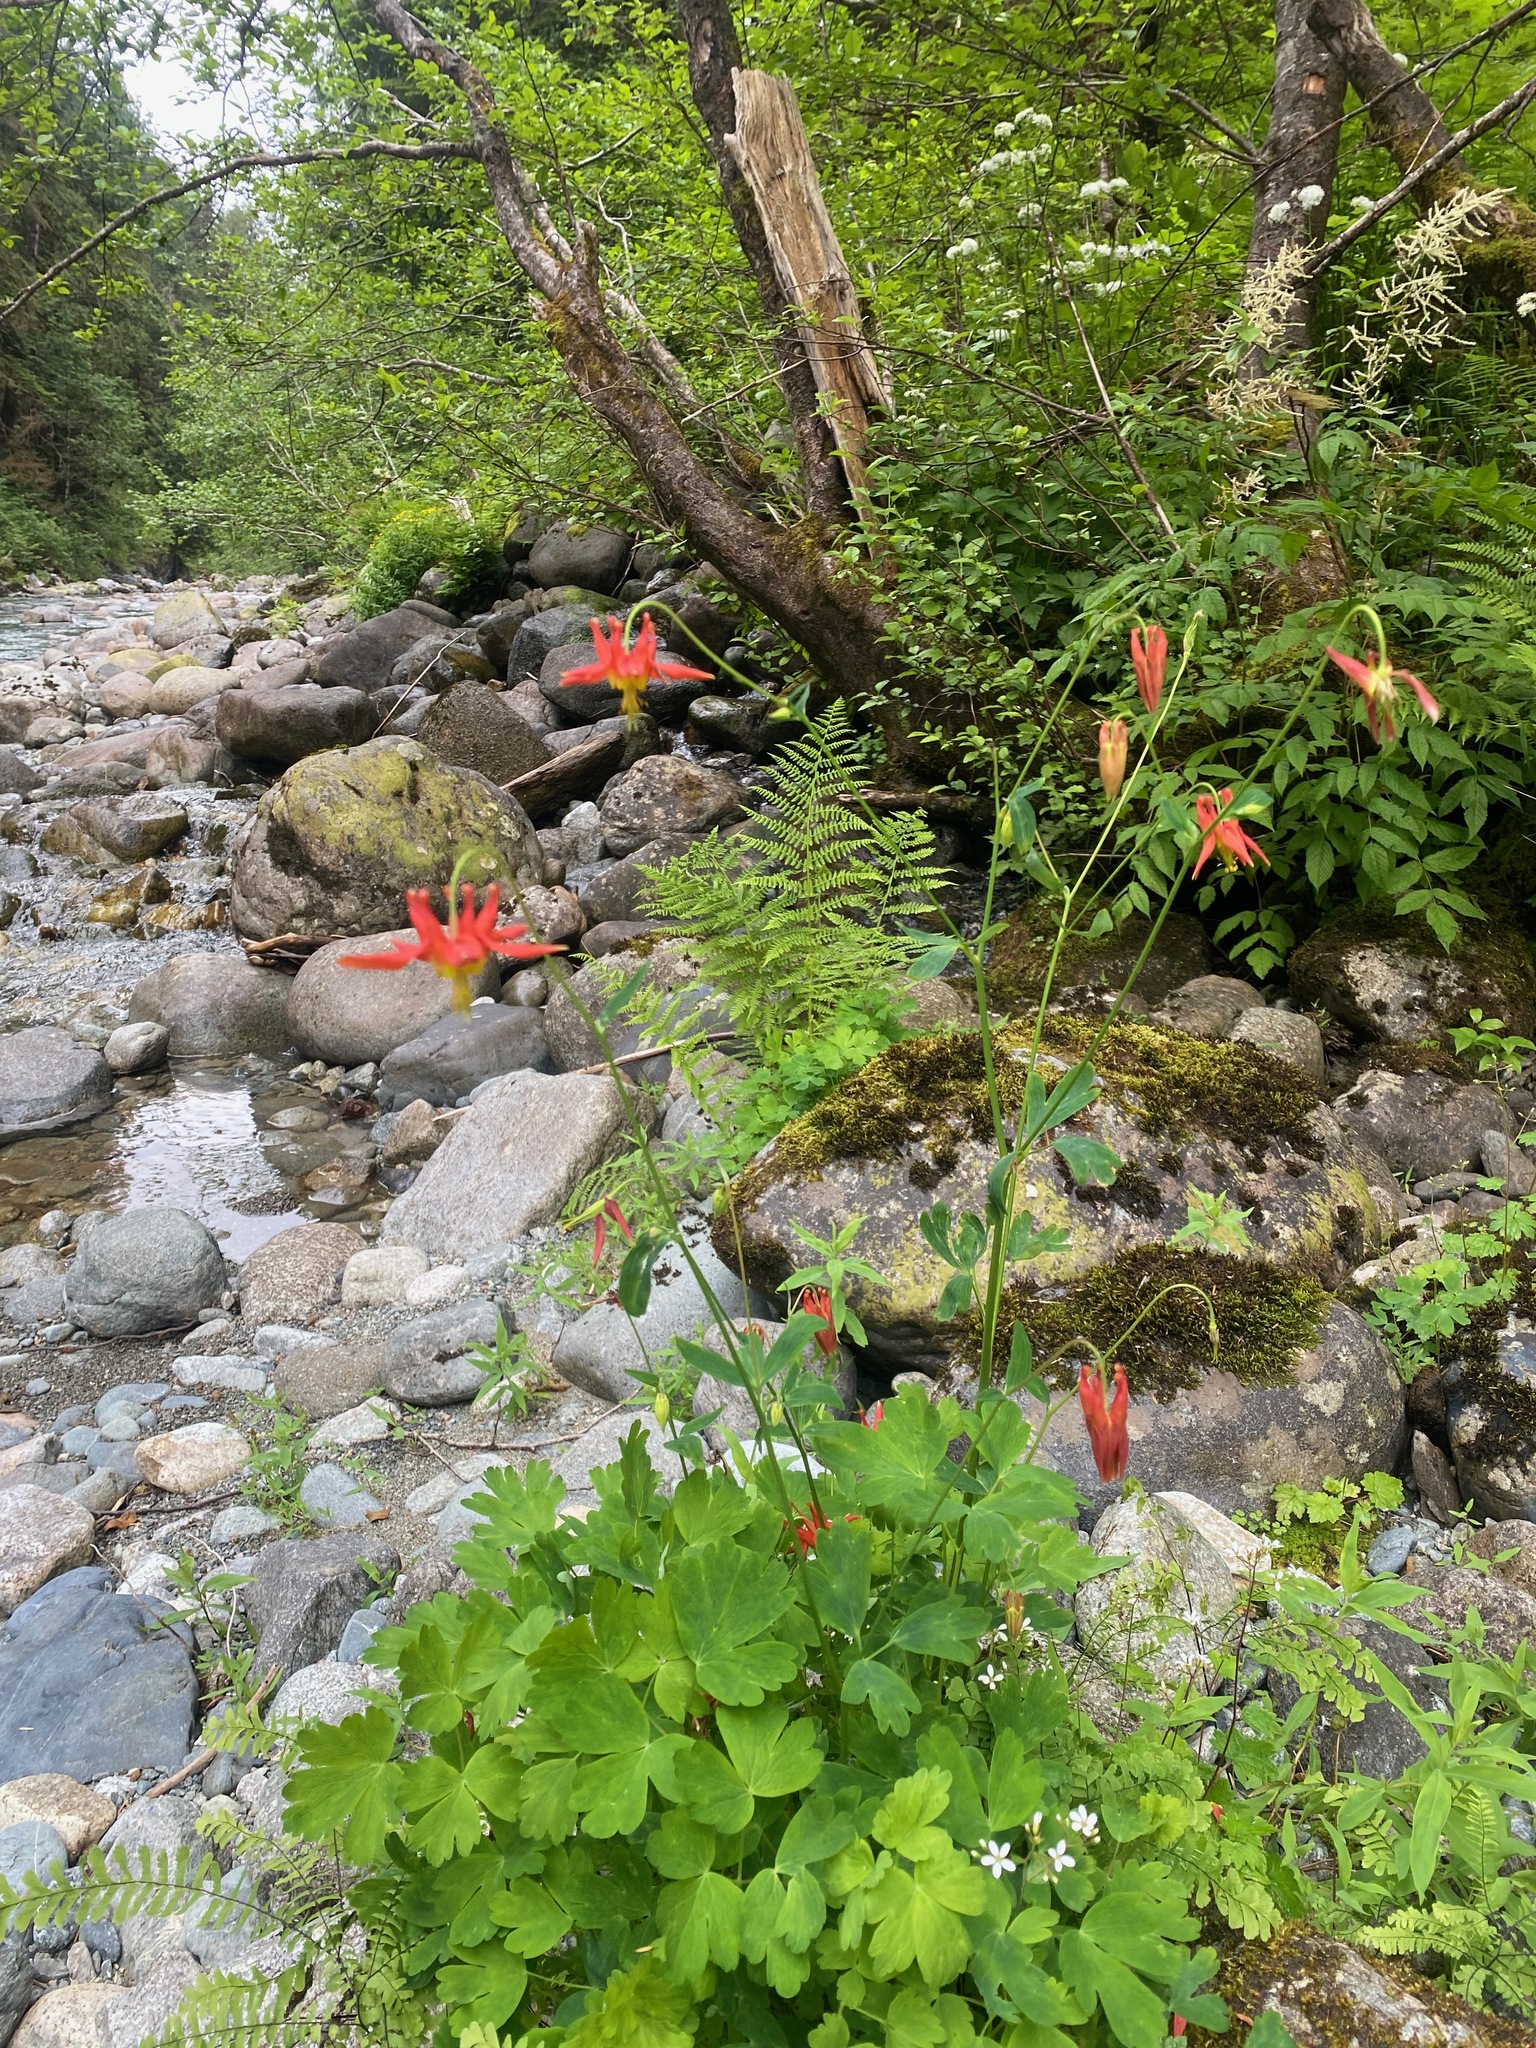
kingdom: Plantae
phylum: Tracheophyta
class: Magnoliopsida
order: Ranunculales
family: Ranunculaceae
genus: Aquilegia
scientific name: Aquilegia formosa
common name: Sitka columbine
